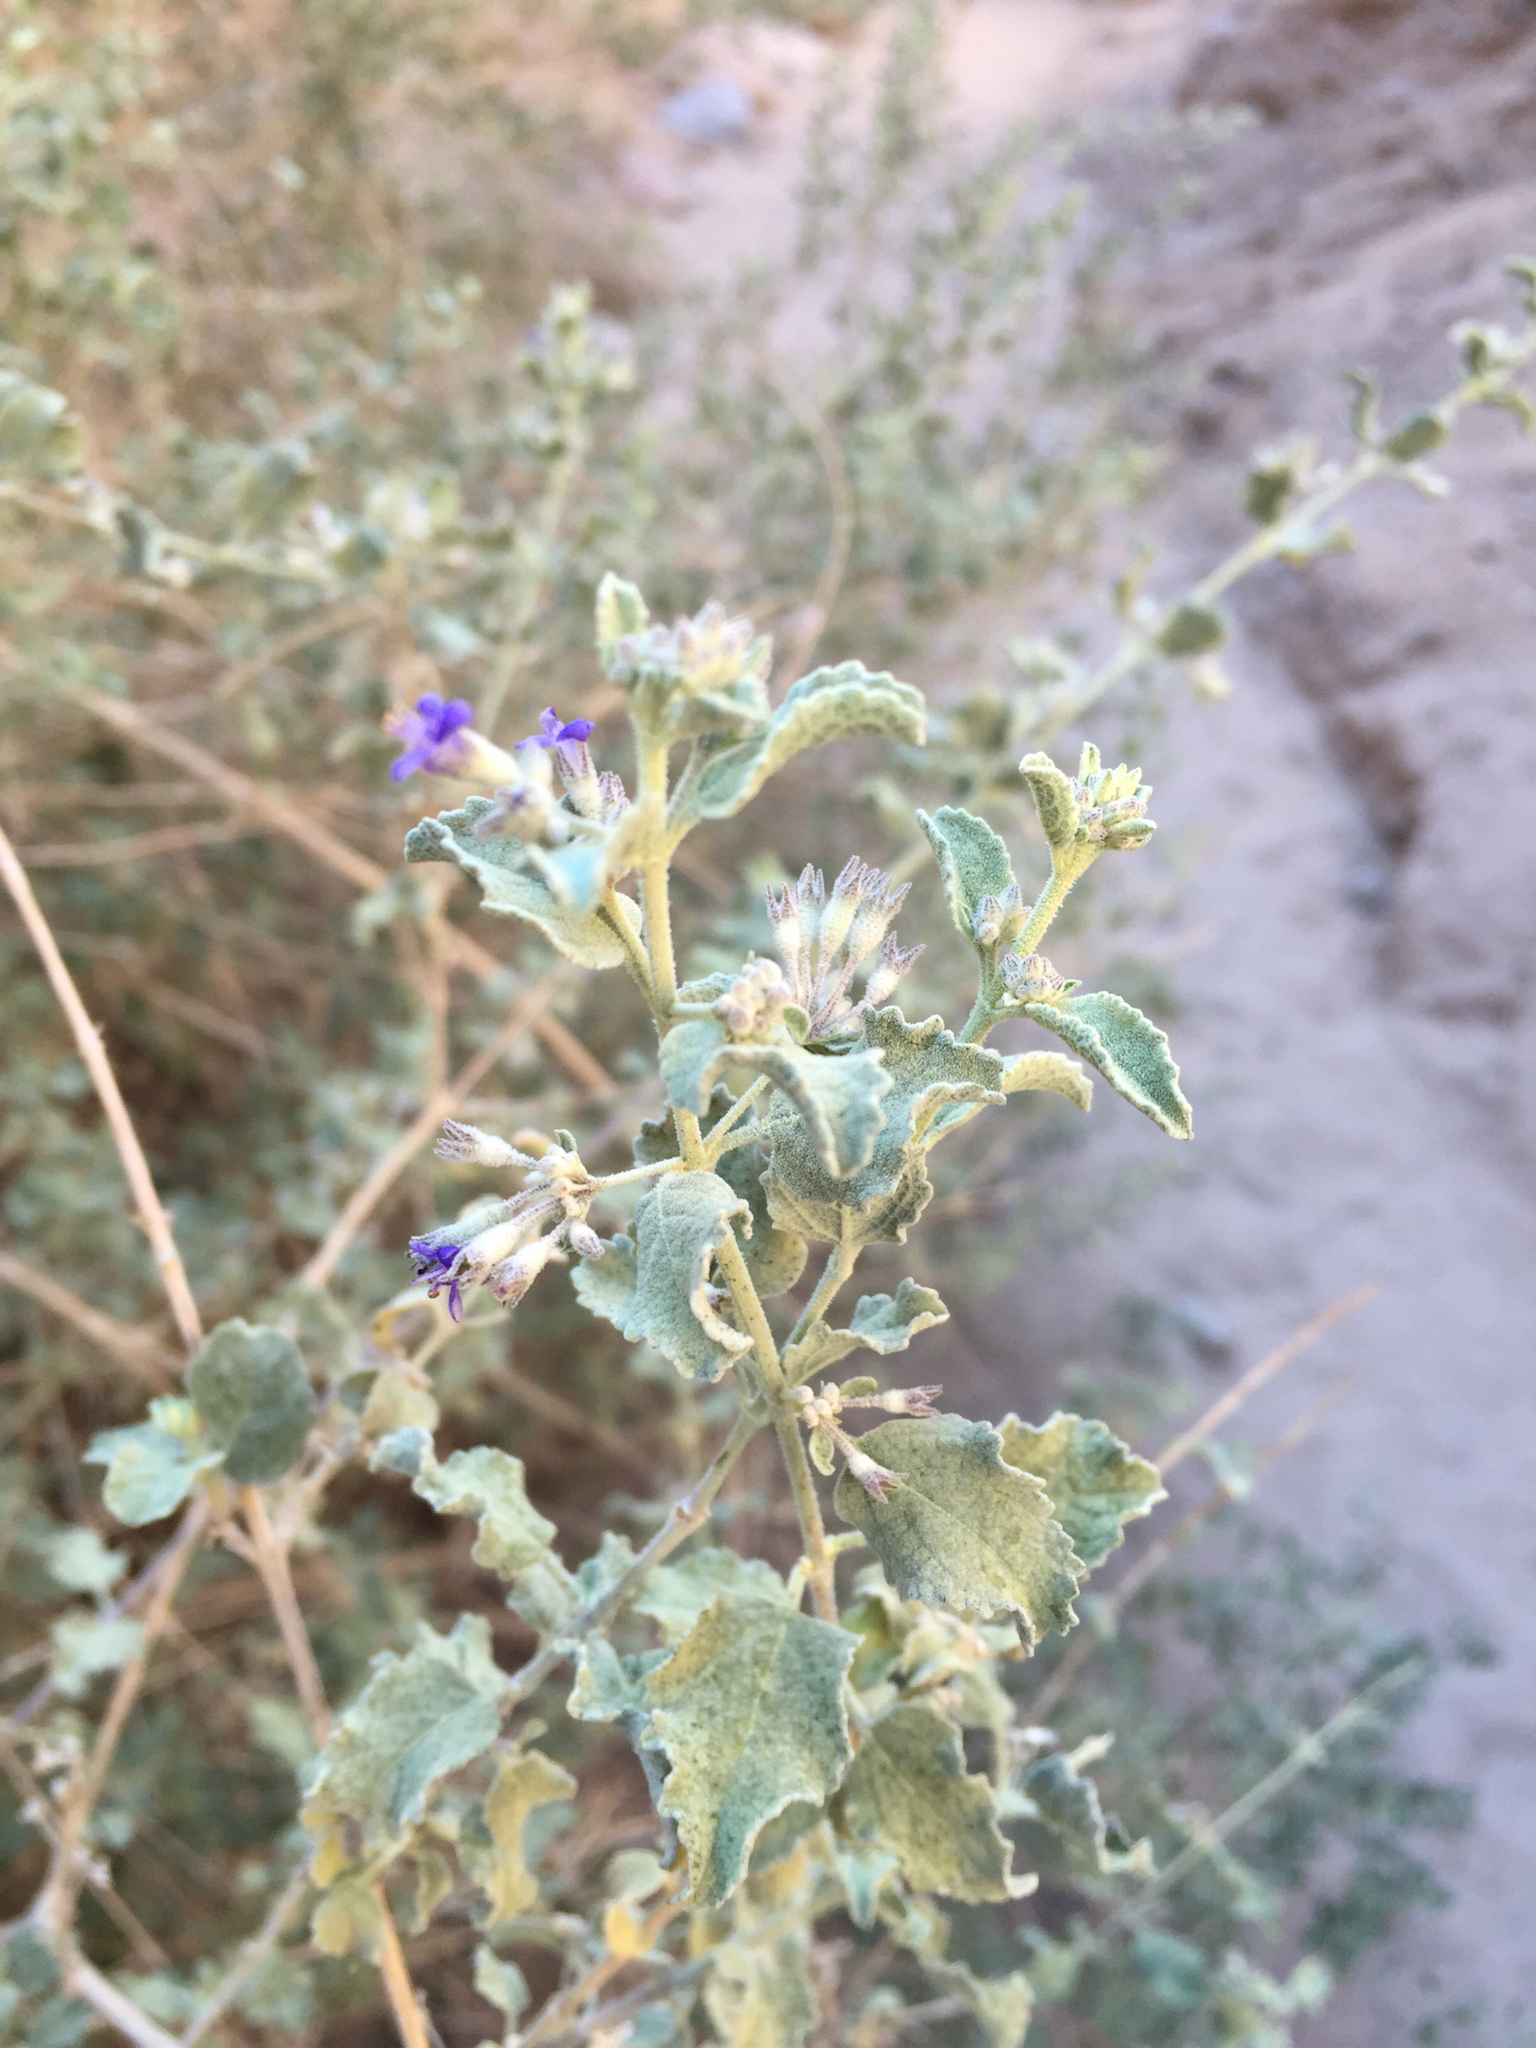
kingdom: Plantae
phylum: Tracheophyta
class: Magnoliopsida
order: Lamiales
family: Lamiaceae
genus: Condea
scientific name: Condea emoryi
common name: Chia
